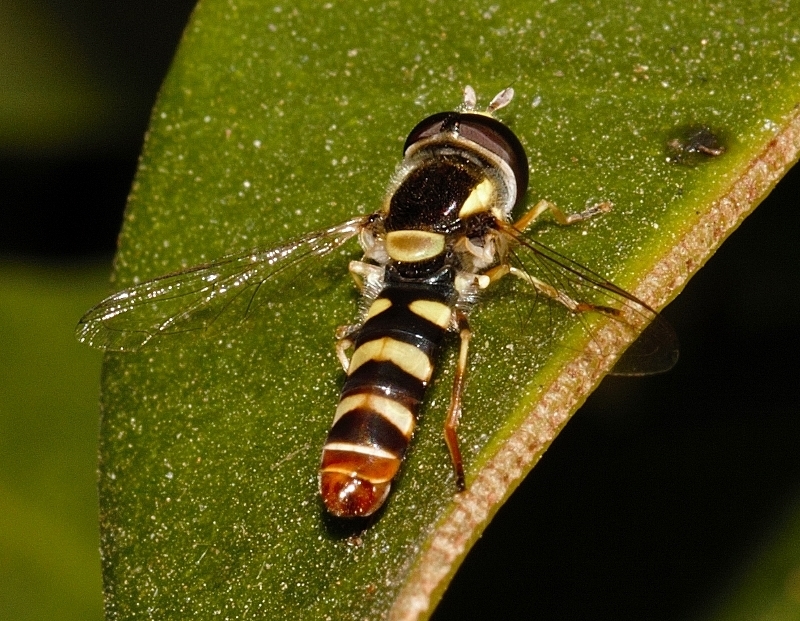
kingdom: Animalia
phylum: Arthropoda
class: Insecta
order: Diptera
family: Syrphidae
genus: Ischiodon
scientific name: Ischiodon aegyptius
